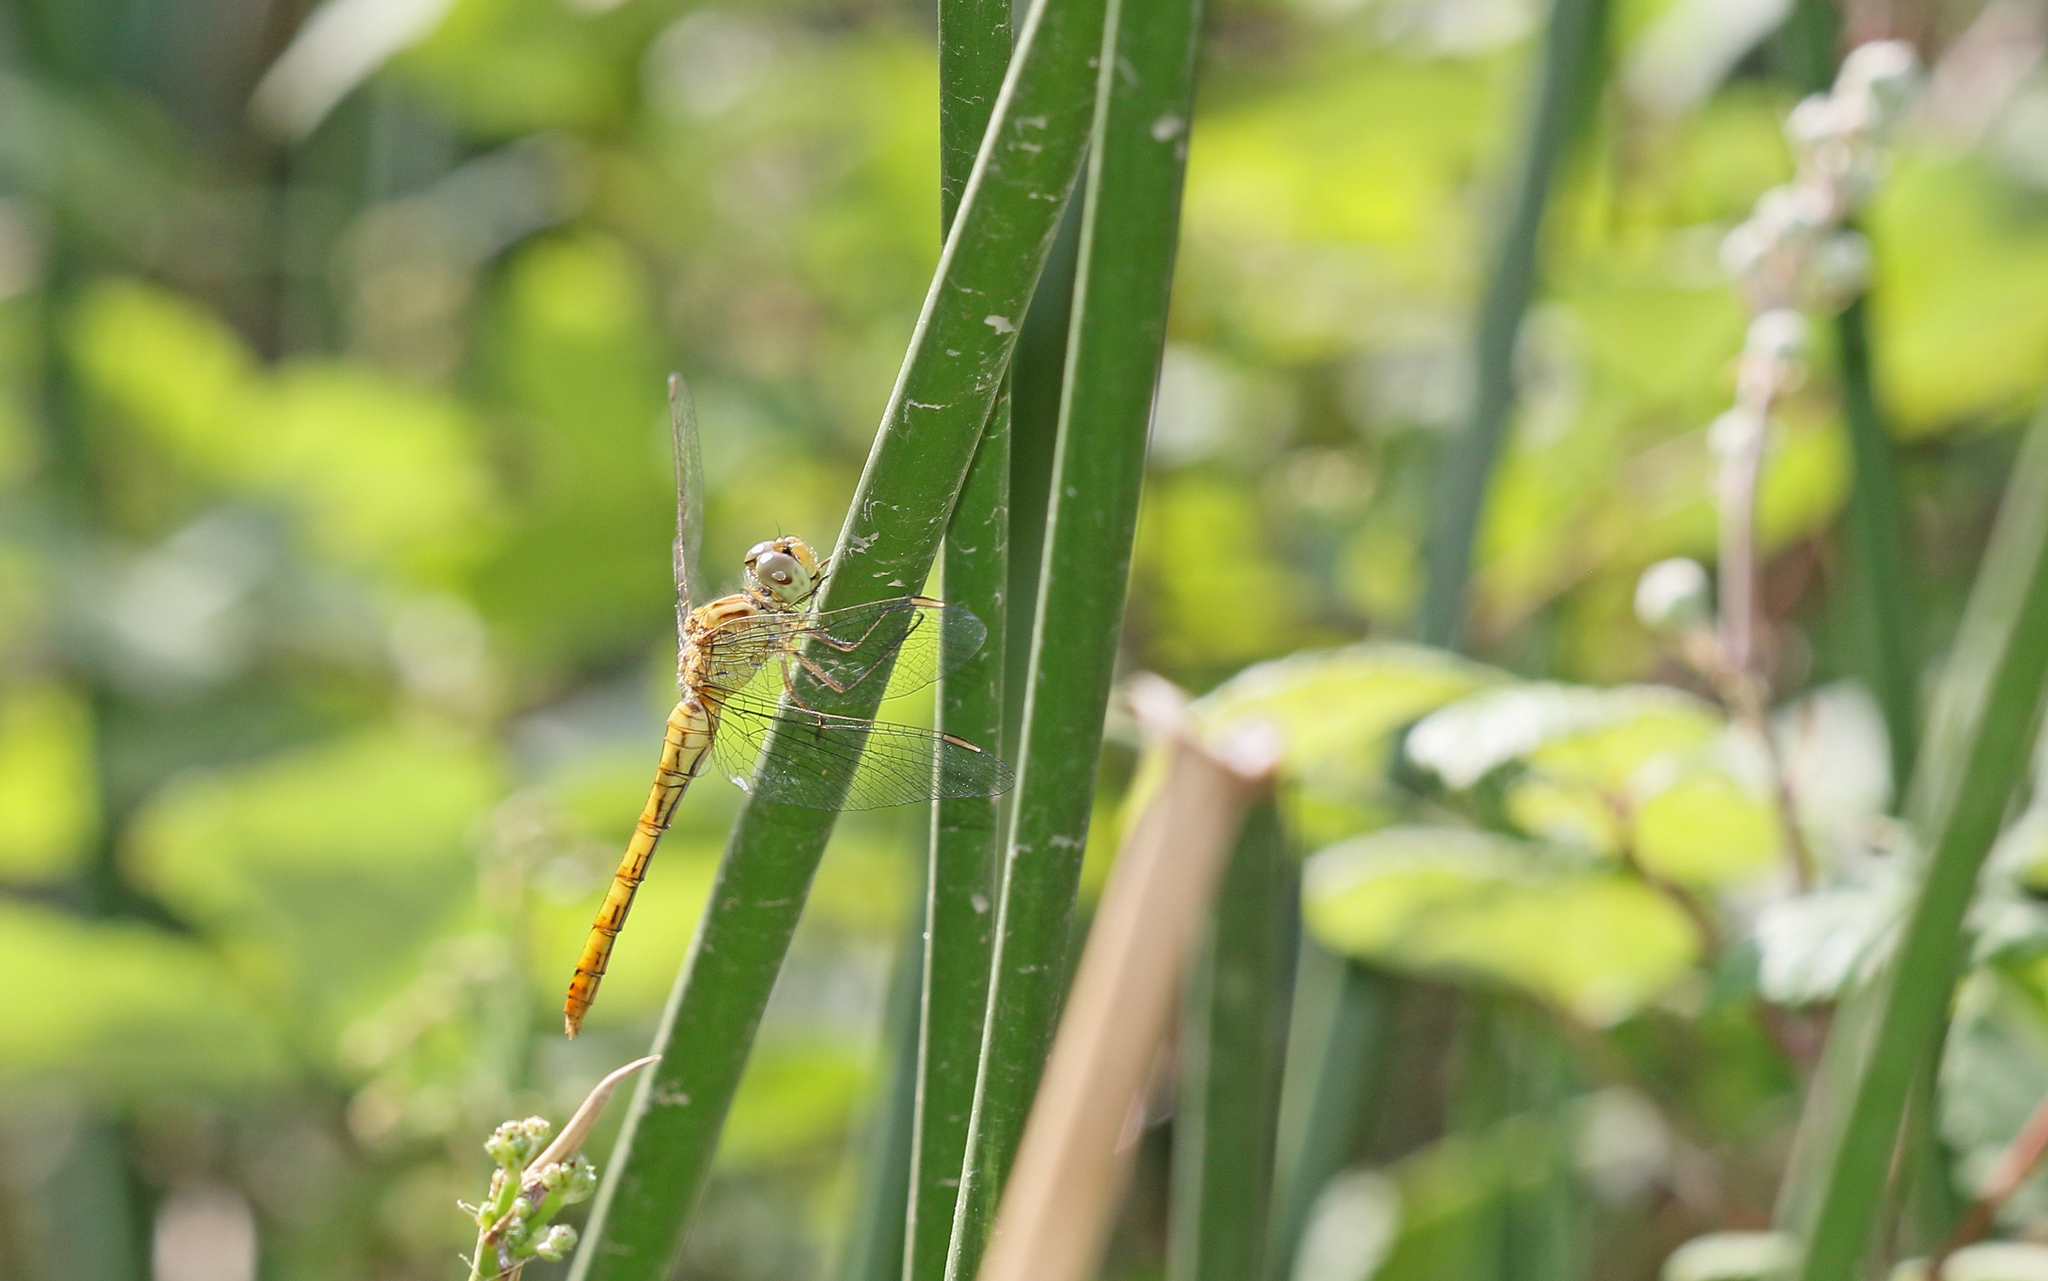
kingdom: Animalia
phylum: Arthropoda
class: Insecta
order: Odonata
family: Libellulidae
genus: Sympetrum
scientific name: Sympetrum meridionale
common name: Southern darter
